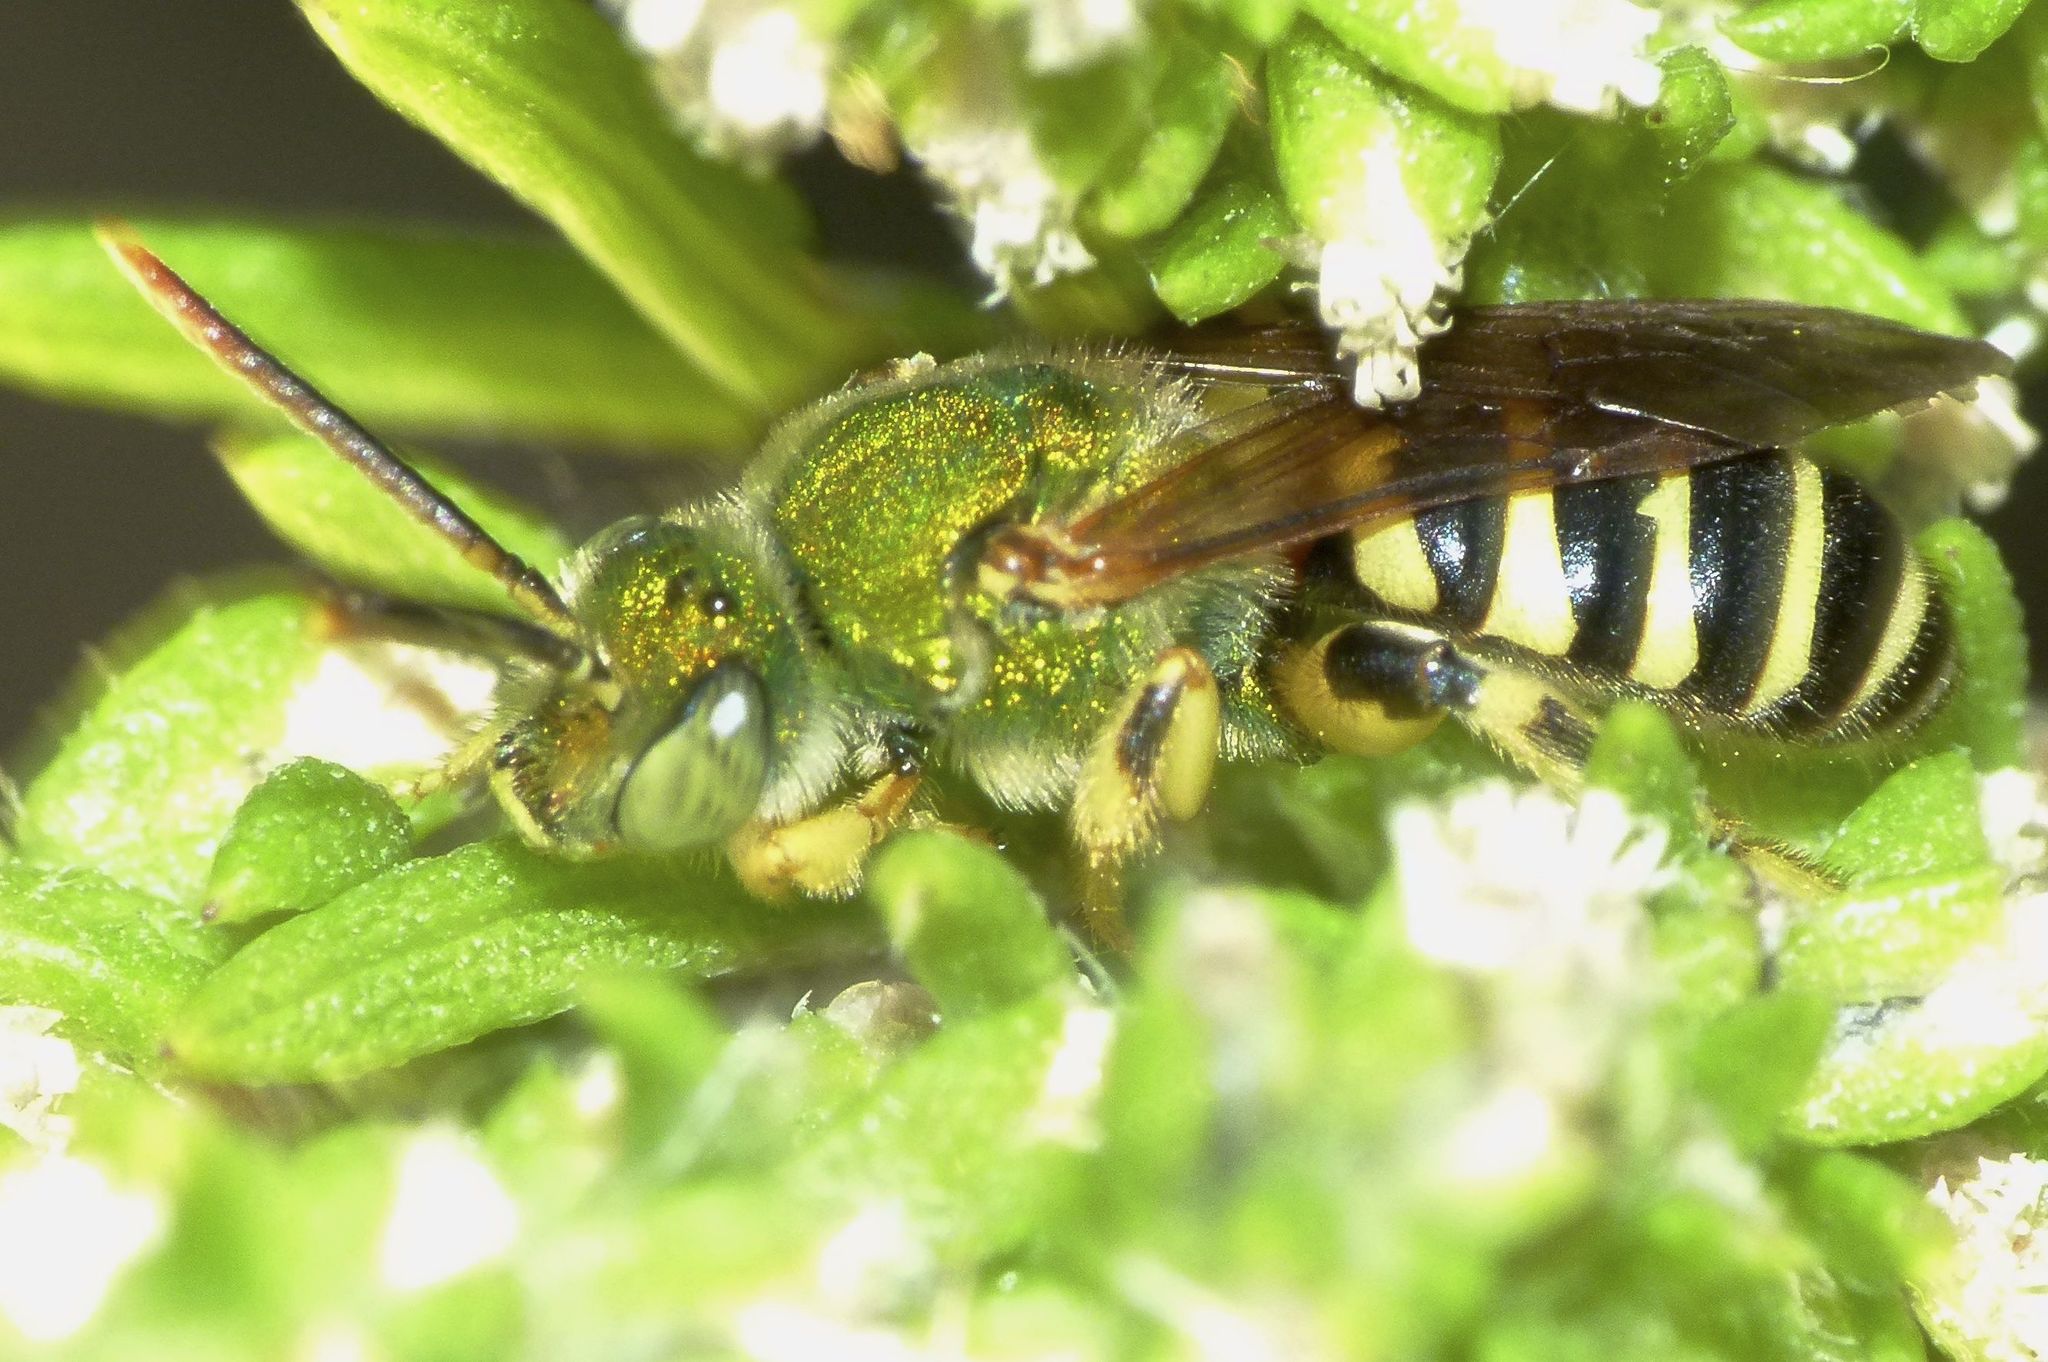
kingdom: Animalia
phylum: Arthropoda
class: Insecta
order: Hymenoptera
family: Halictidae
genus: Agapostemon
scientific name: Agapostemon splendens
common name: Brown-winged striped sweat bee
